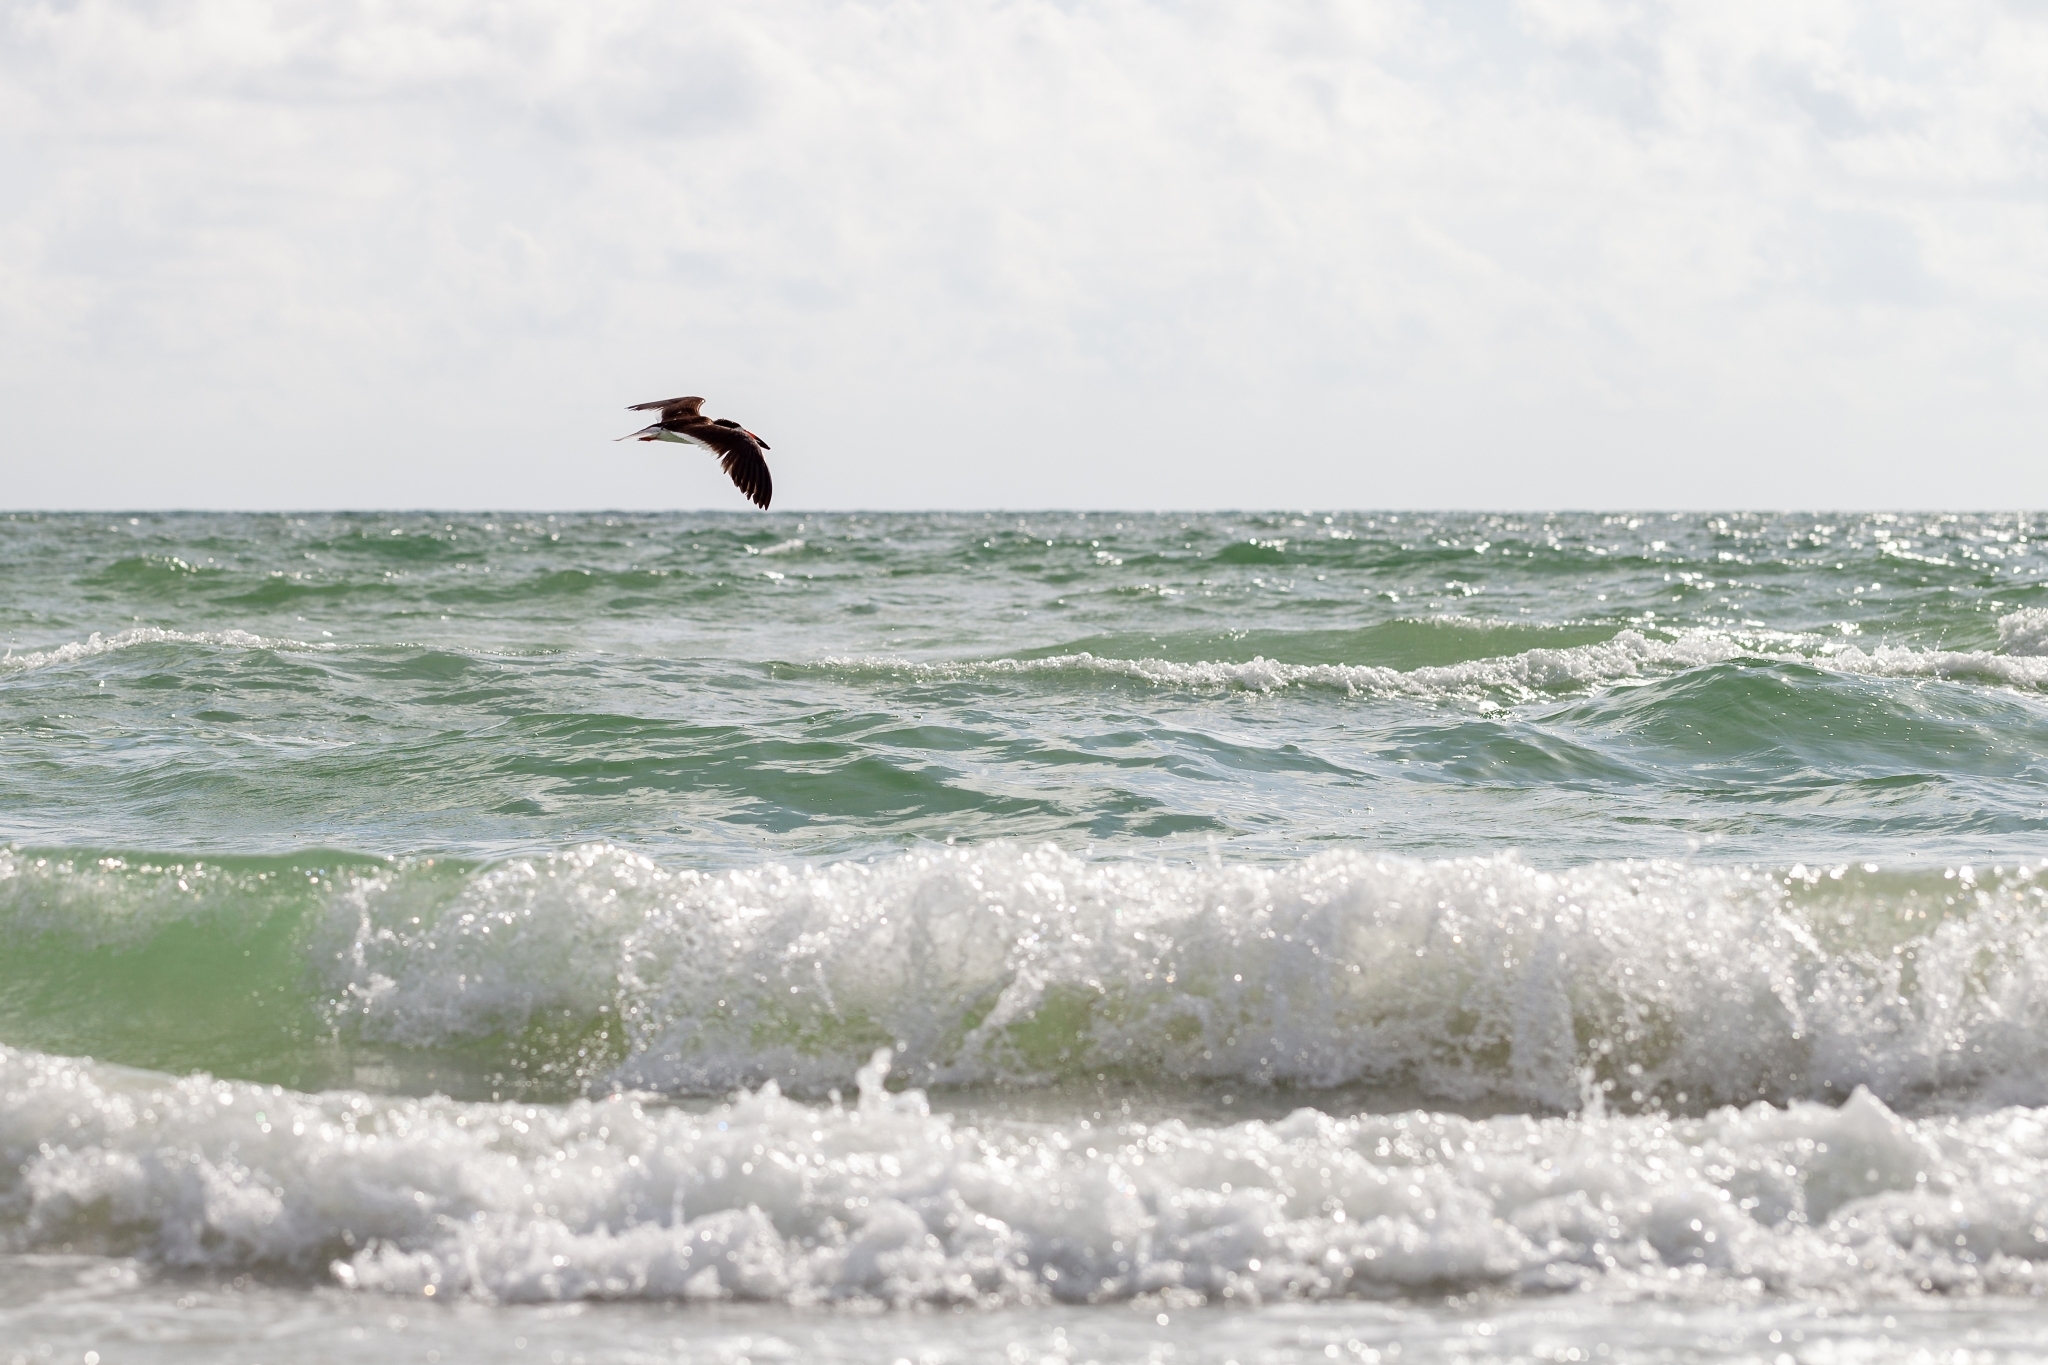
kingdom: Animalia
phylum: Chordata
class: Aves
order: Charadriiformes
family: Laridae
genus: Rynchops
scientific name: Rynchops niger
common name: Black skimmer
